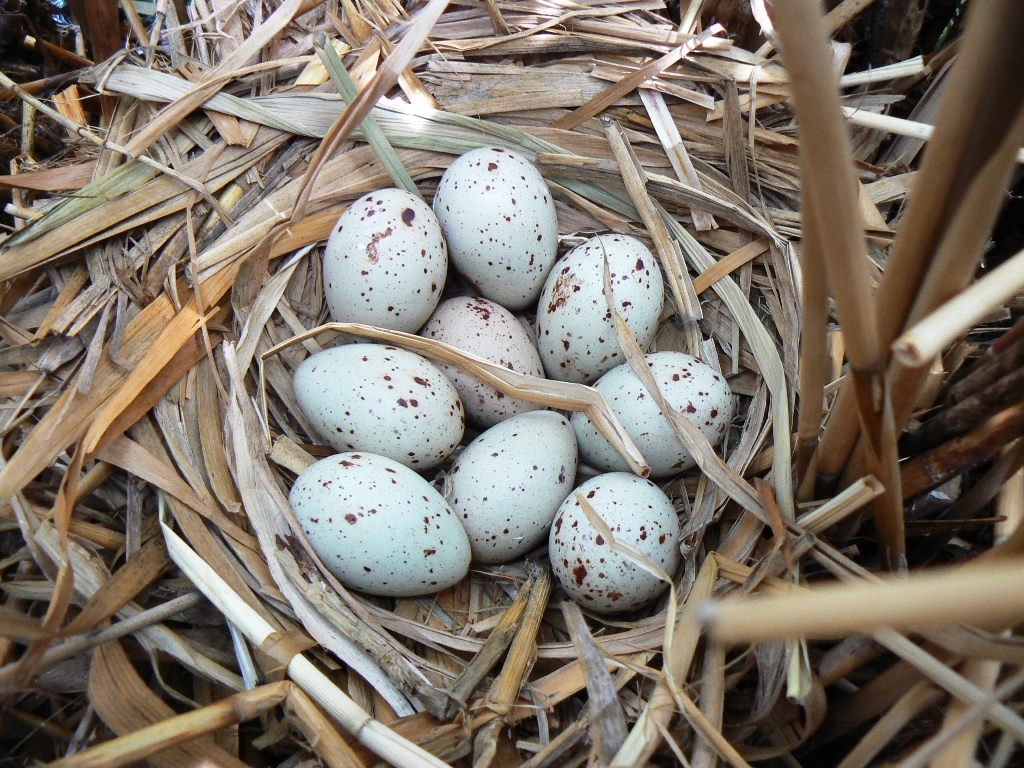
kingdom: Animalia
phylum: Chordata
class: Aves
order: Gruiformes
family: Rallidae
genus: Gallinula
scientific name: Gallinula chloropus
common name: Common moorhen
